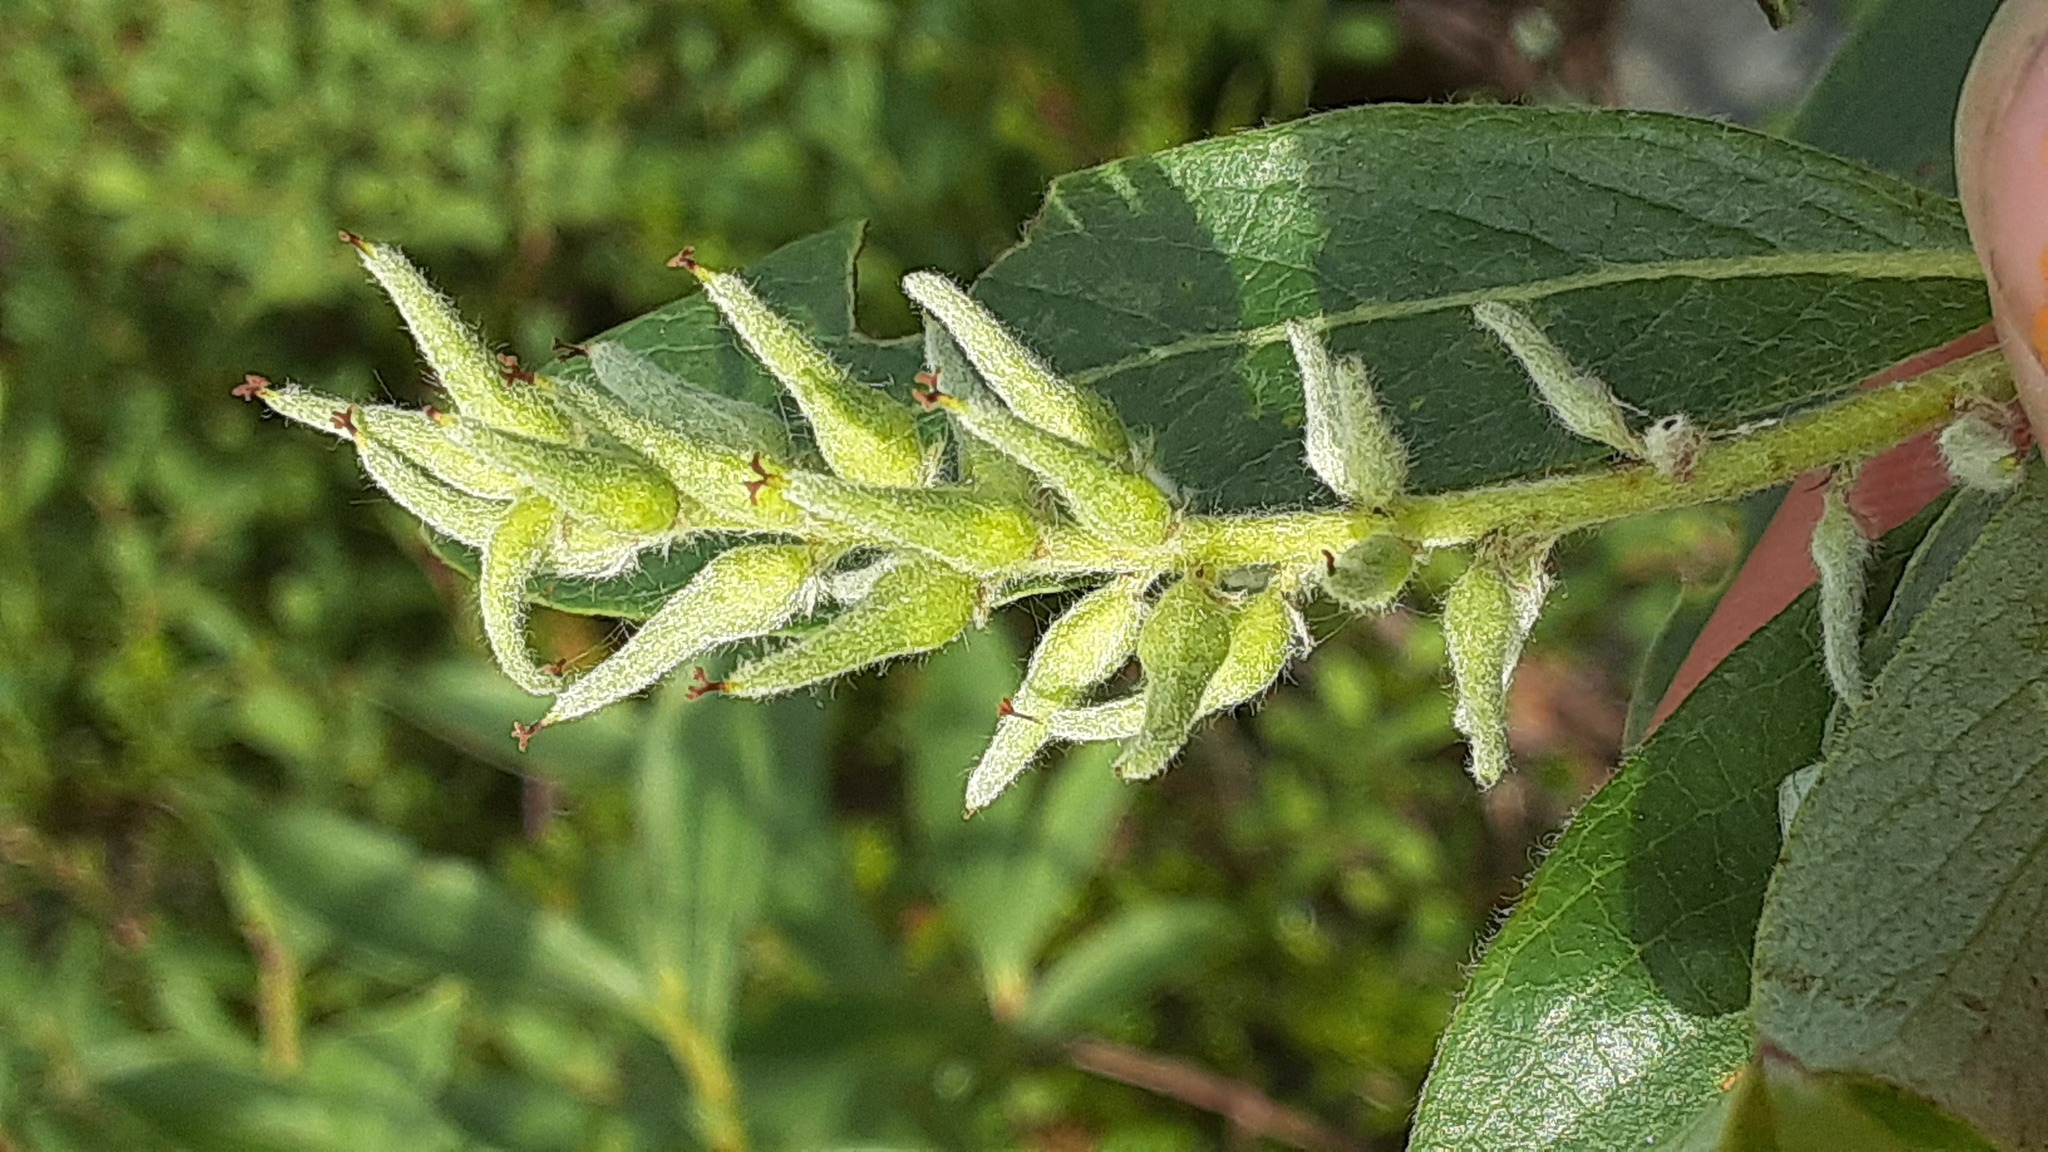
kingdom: Plantae
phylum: Tracheophyta
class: Magnoliopsida
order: Malpighiales
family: Salicaceae
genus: Salix
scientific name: Salix glauca
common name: Glaucous willow
